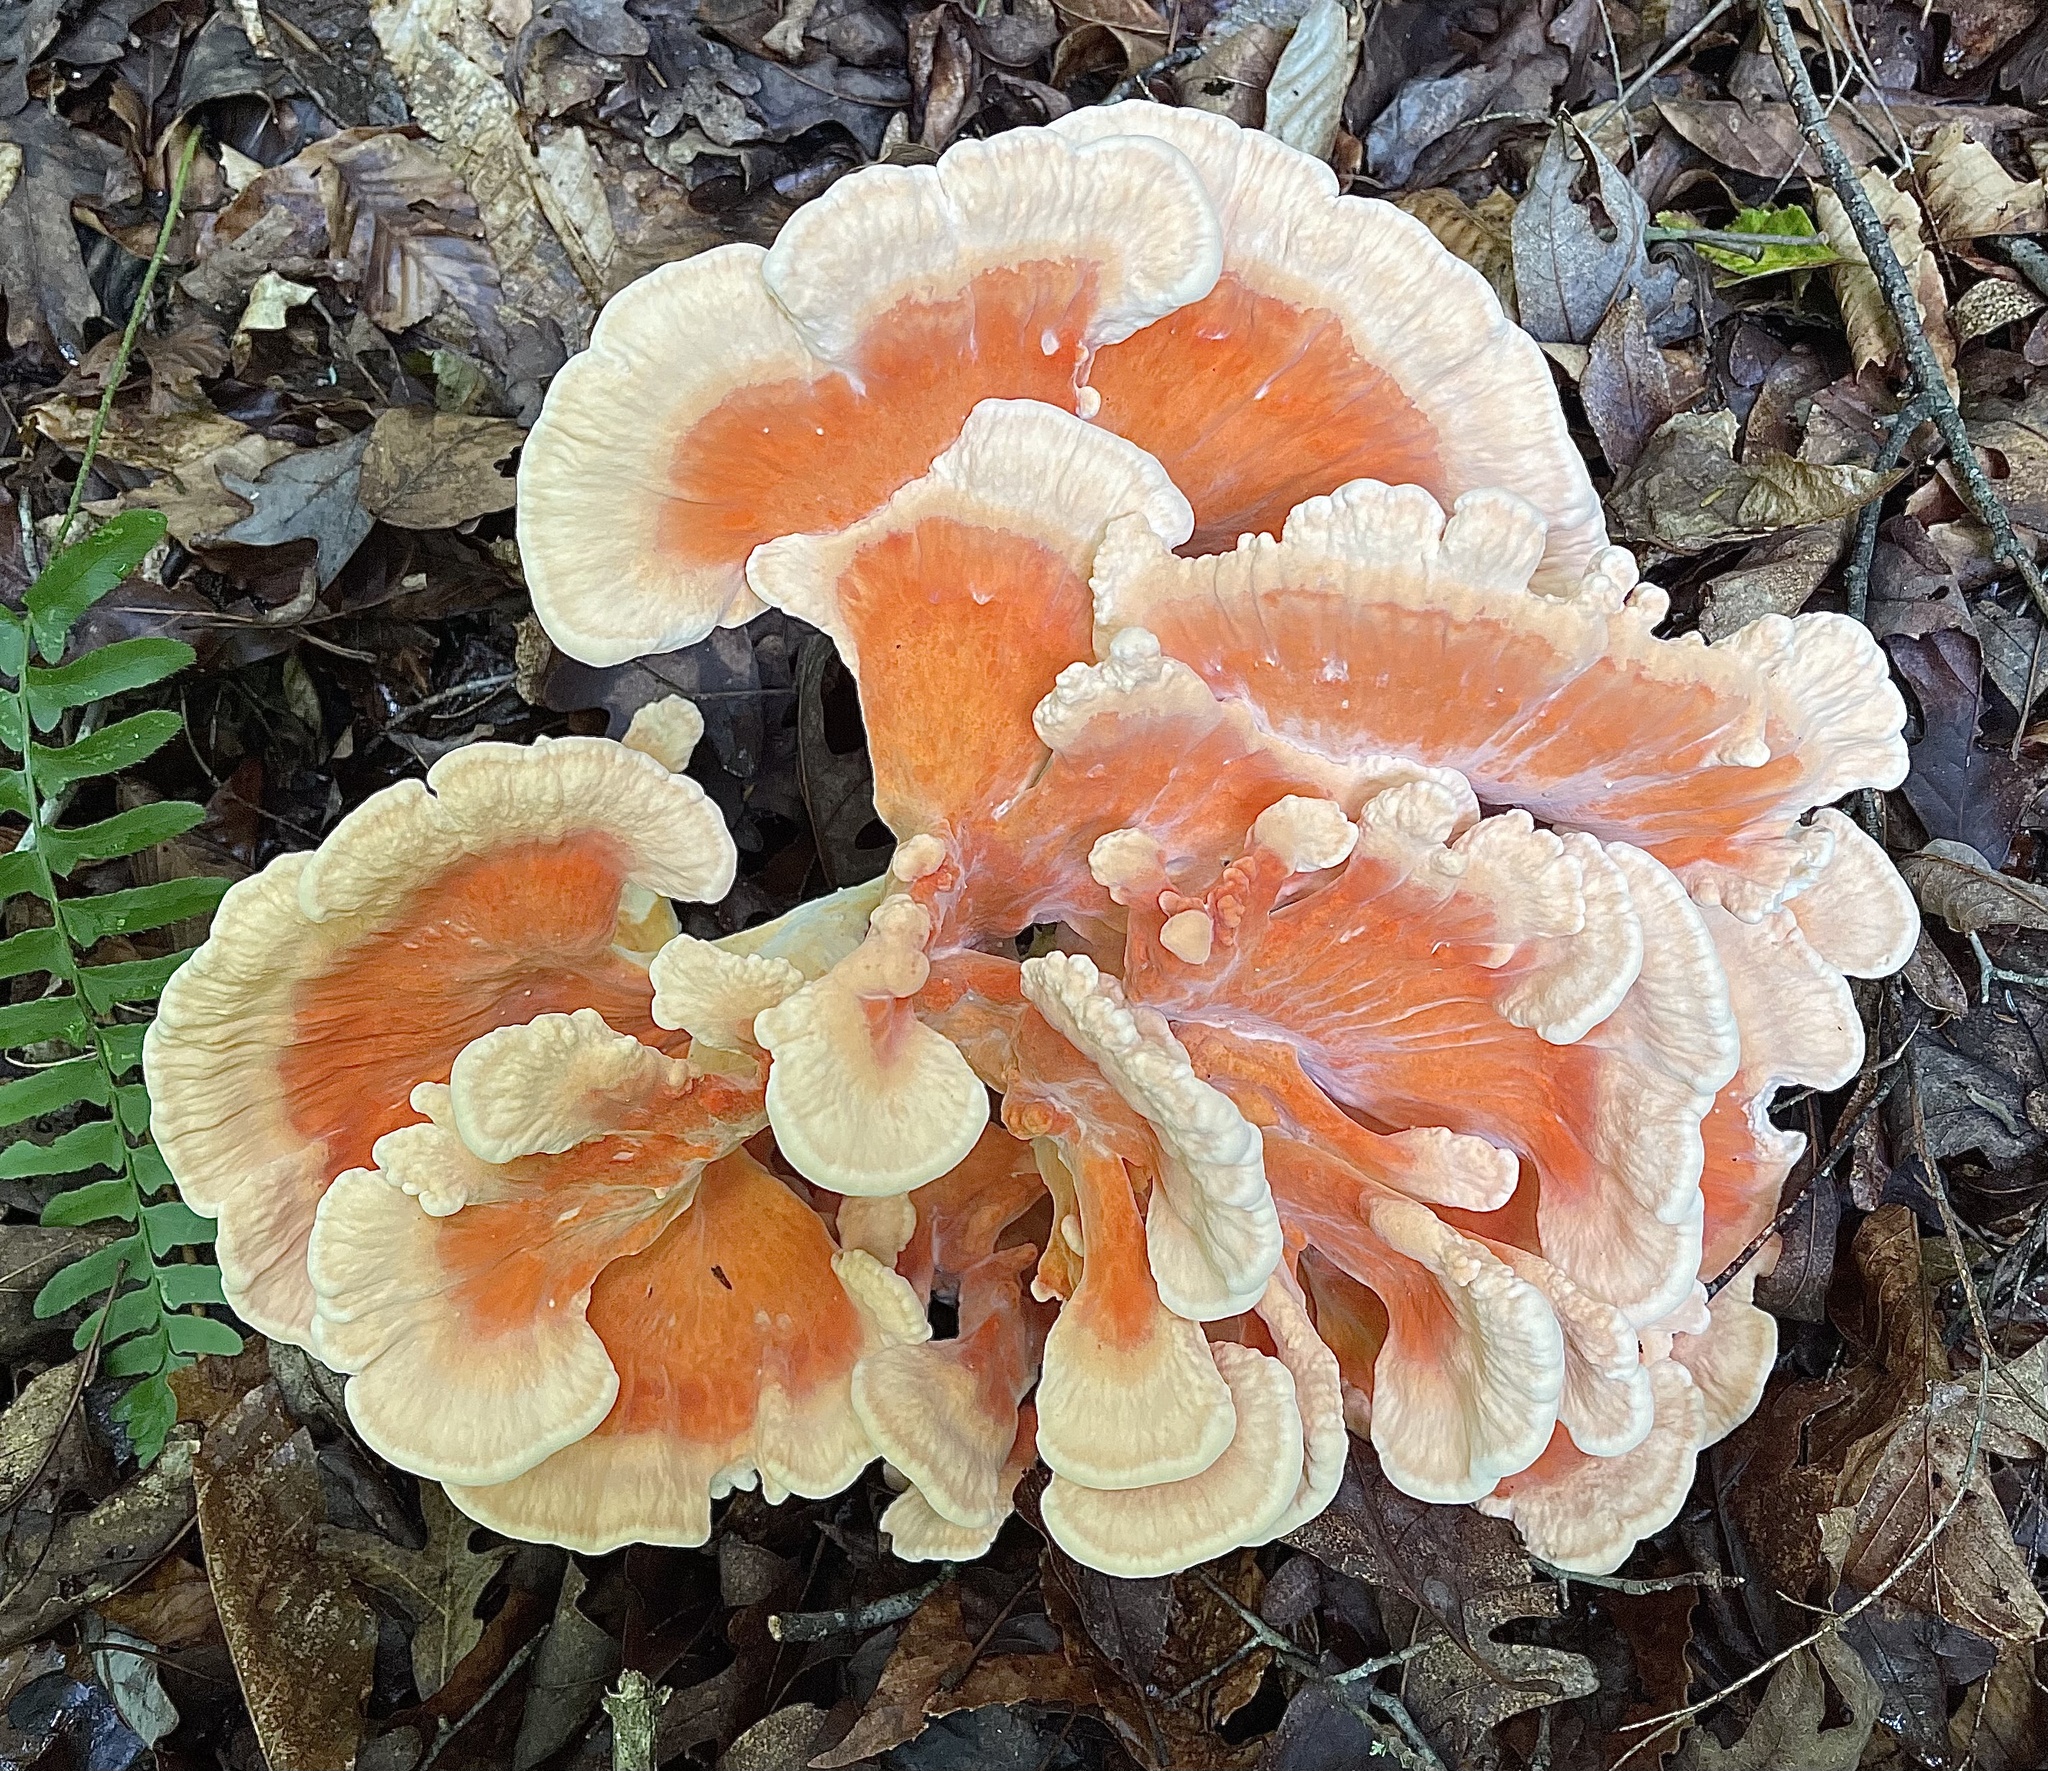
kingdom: Fungi
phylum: Basidiomycota
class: Agaricomycetes
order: Polyporales
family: Laetiporaceae
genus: Laetiporus
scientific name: Laetiporus sulphureus
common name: Chicken of the woods
